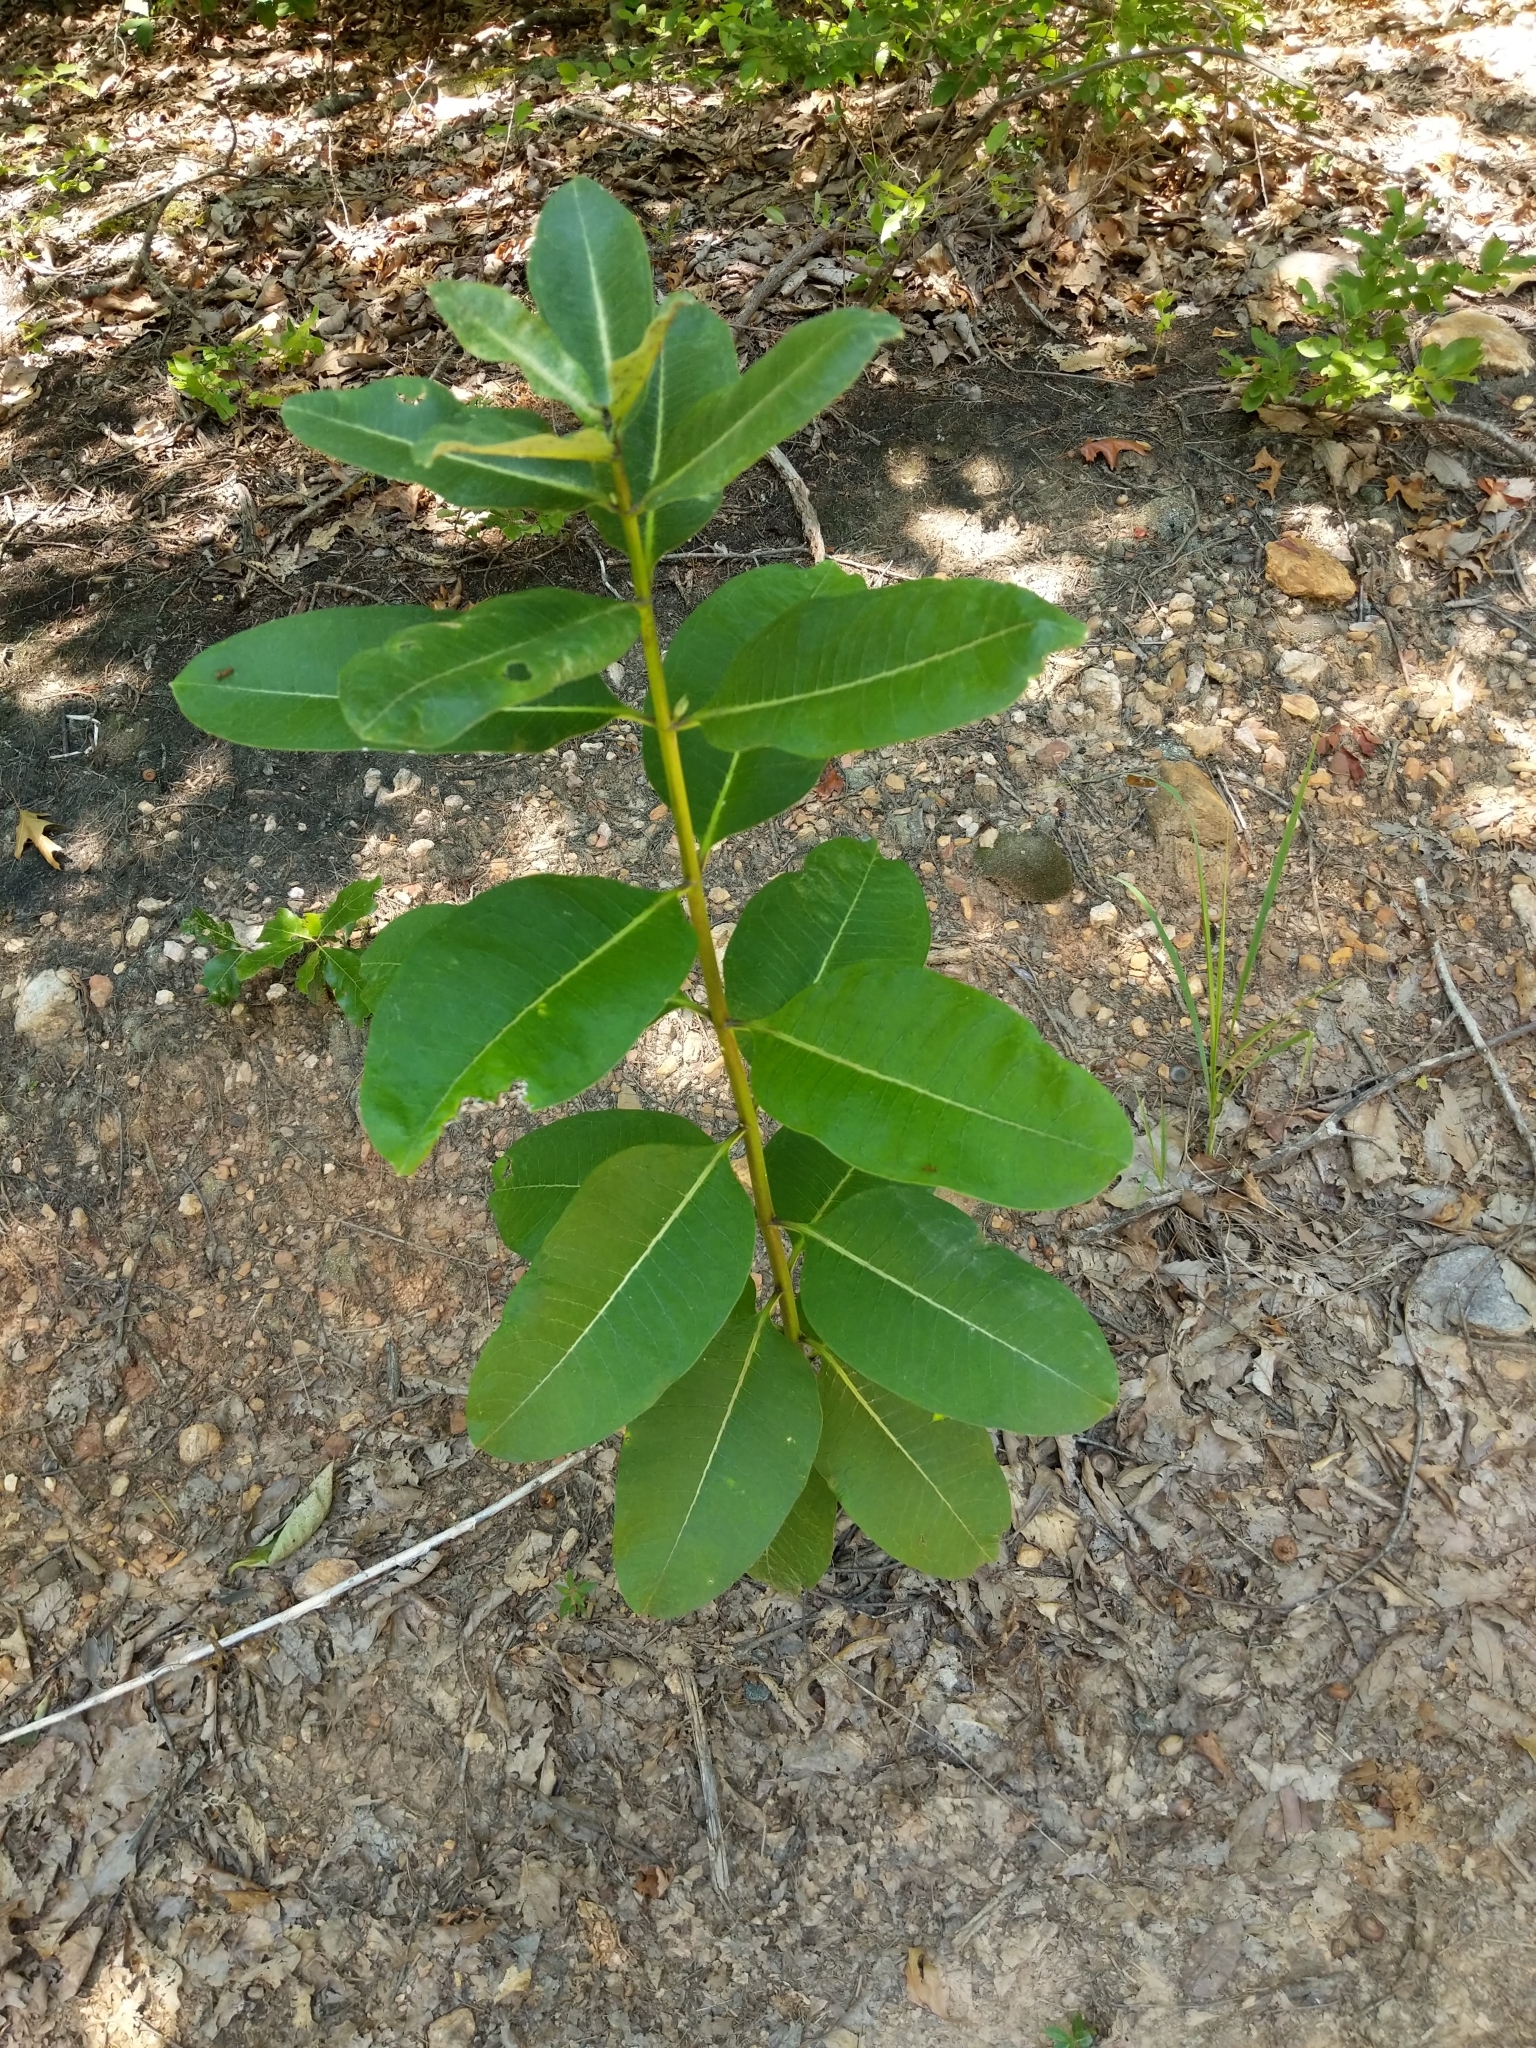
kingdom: Plantae
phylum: Tracheophyta
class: Magnoliopsida
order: Gentianales
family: Apocynaceae
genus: Asclepias
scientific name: Asclepias syriaca
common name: Common milkweed
